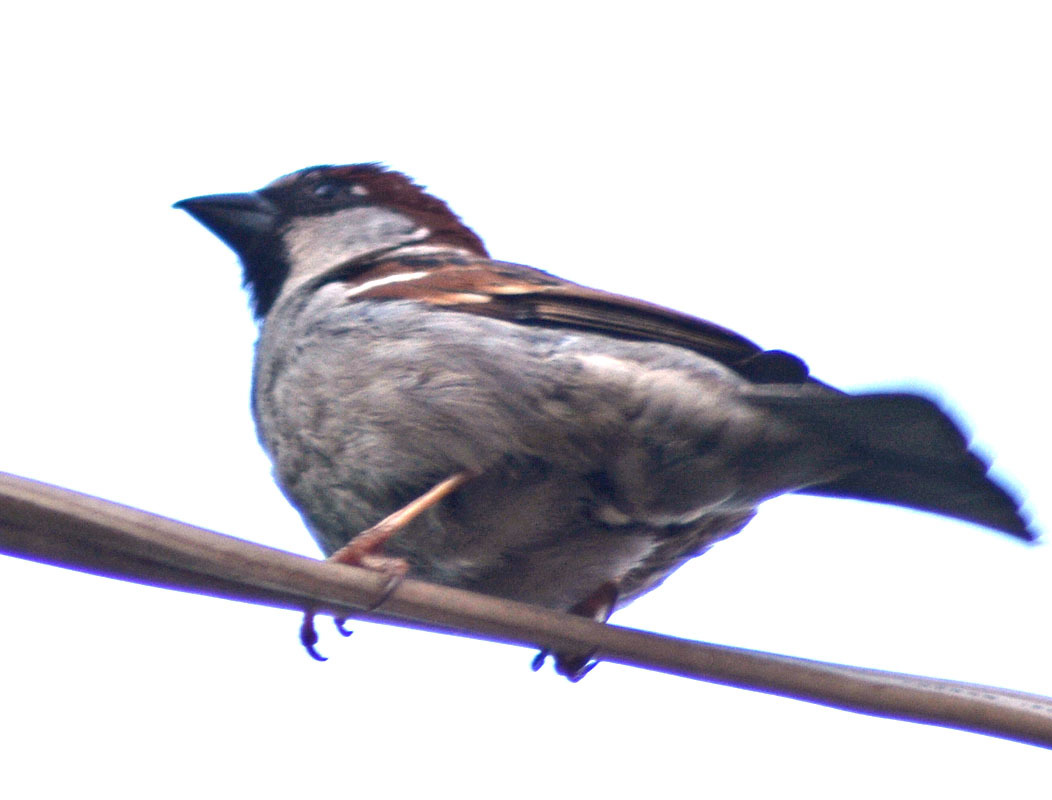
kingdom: Animalia
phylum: Chordata
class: Aves
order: Passeriformes
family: Passeridae
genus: Passer
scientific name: Passer domesticus
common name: House sparrow
